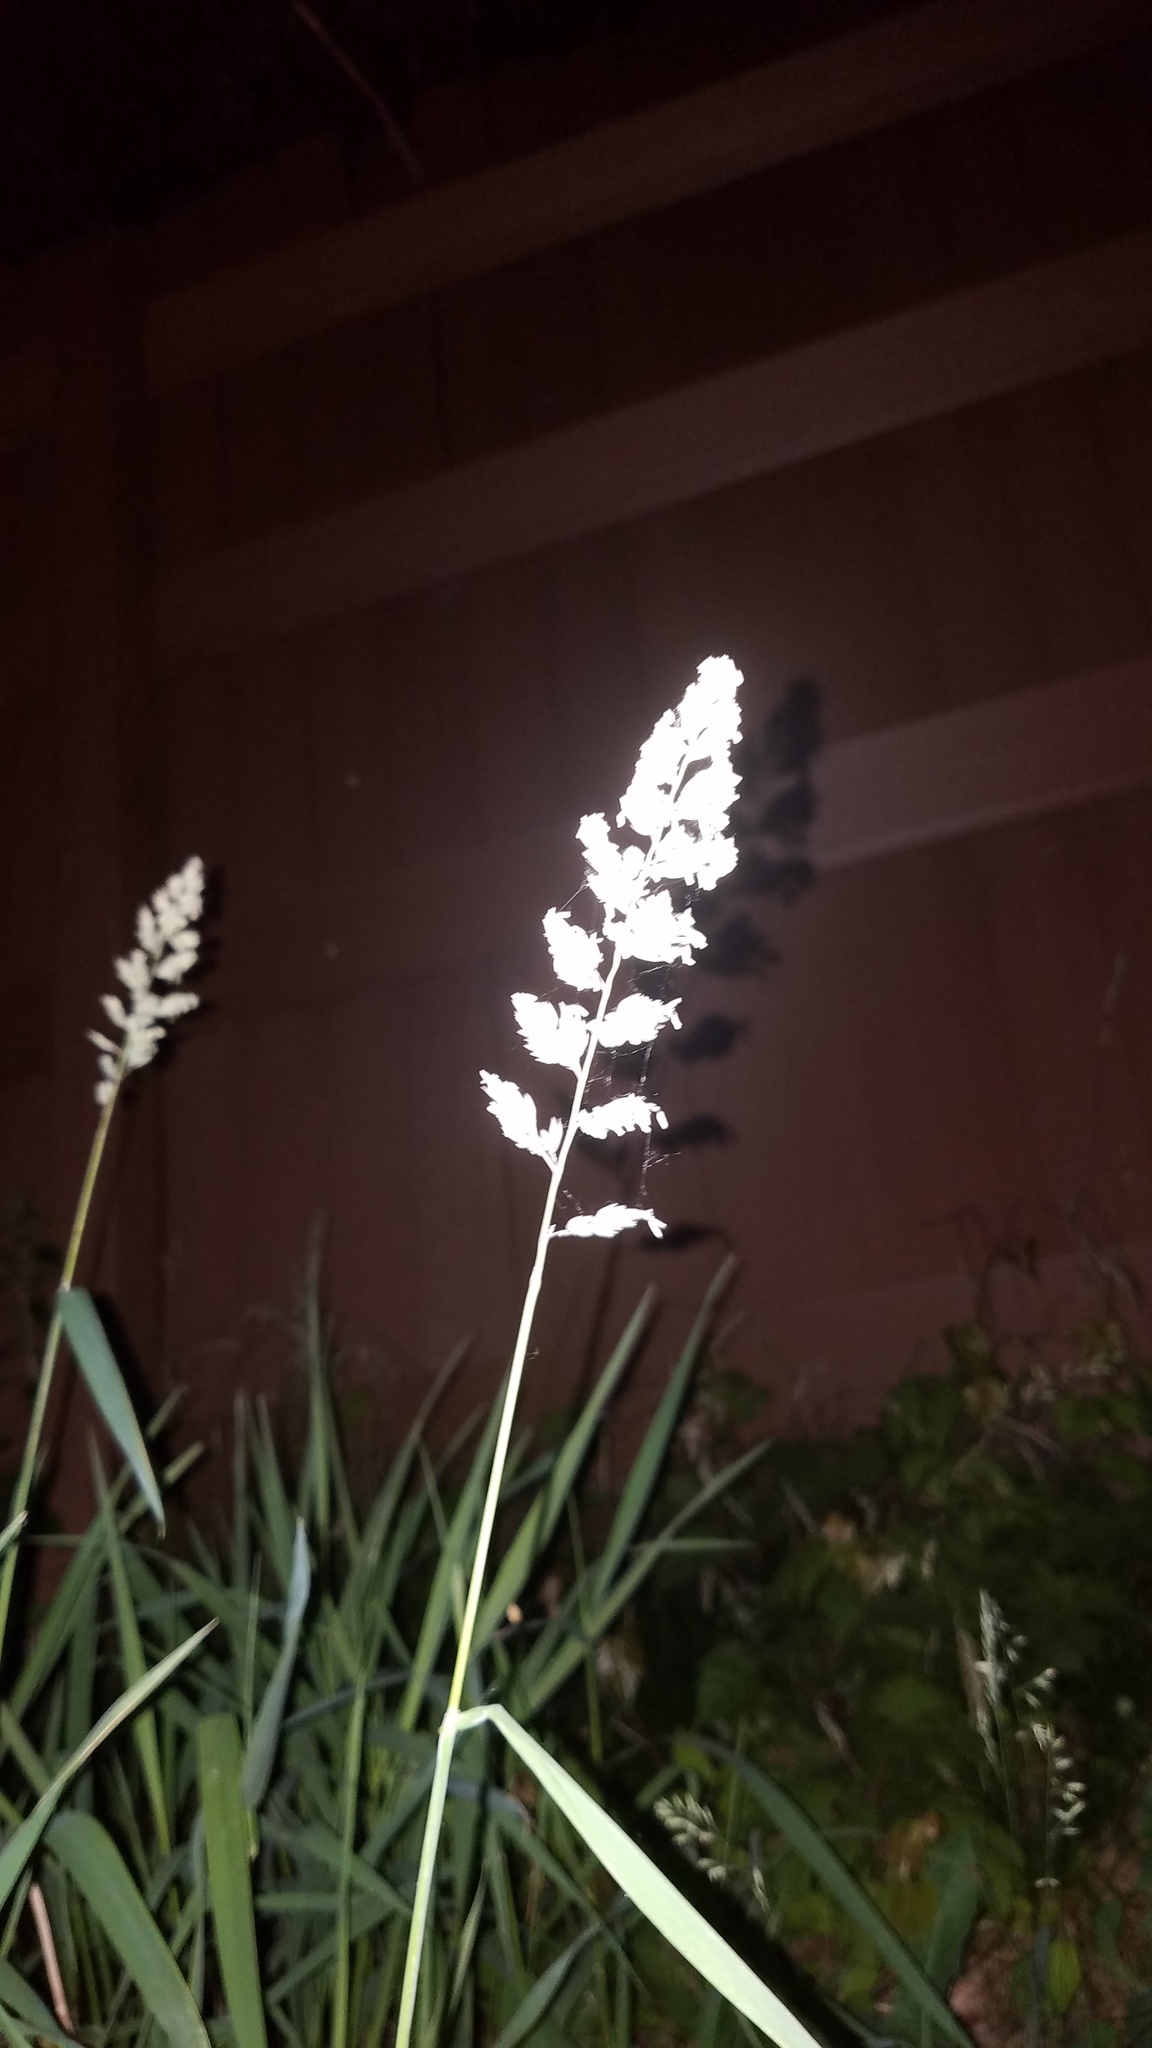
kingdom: Plantae
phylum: Tracheophyta
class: Liliopsida
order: Poales
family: Poaceae
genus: Phalaris
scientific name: Phalaris arundinacea
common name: Reed canary-grass
